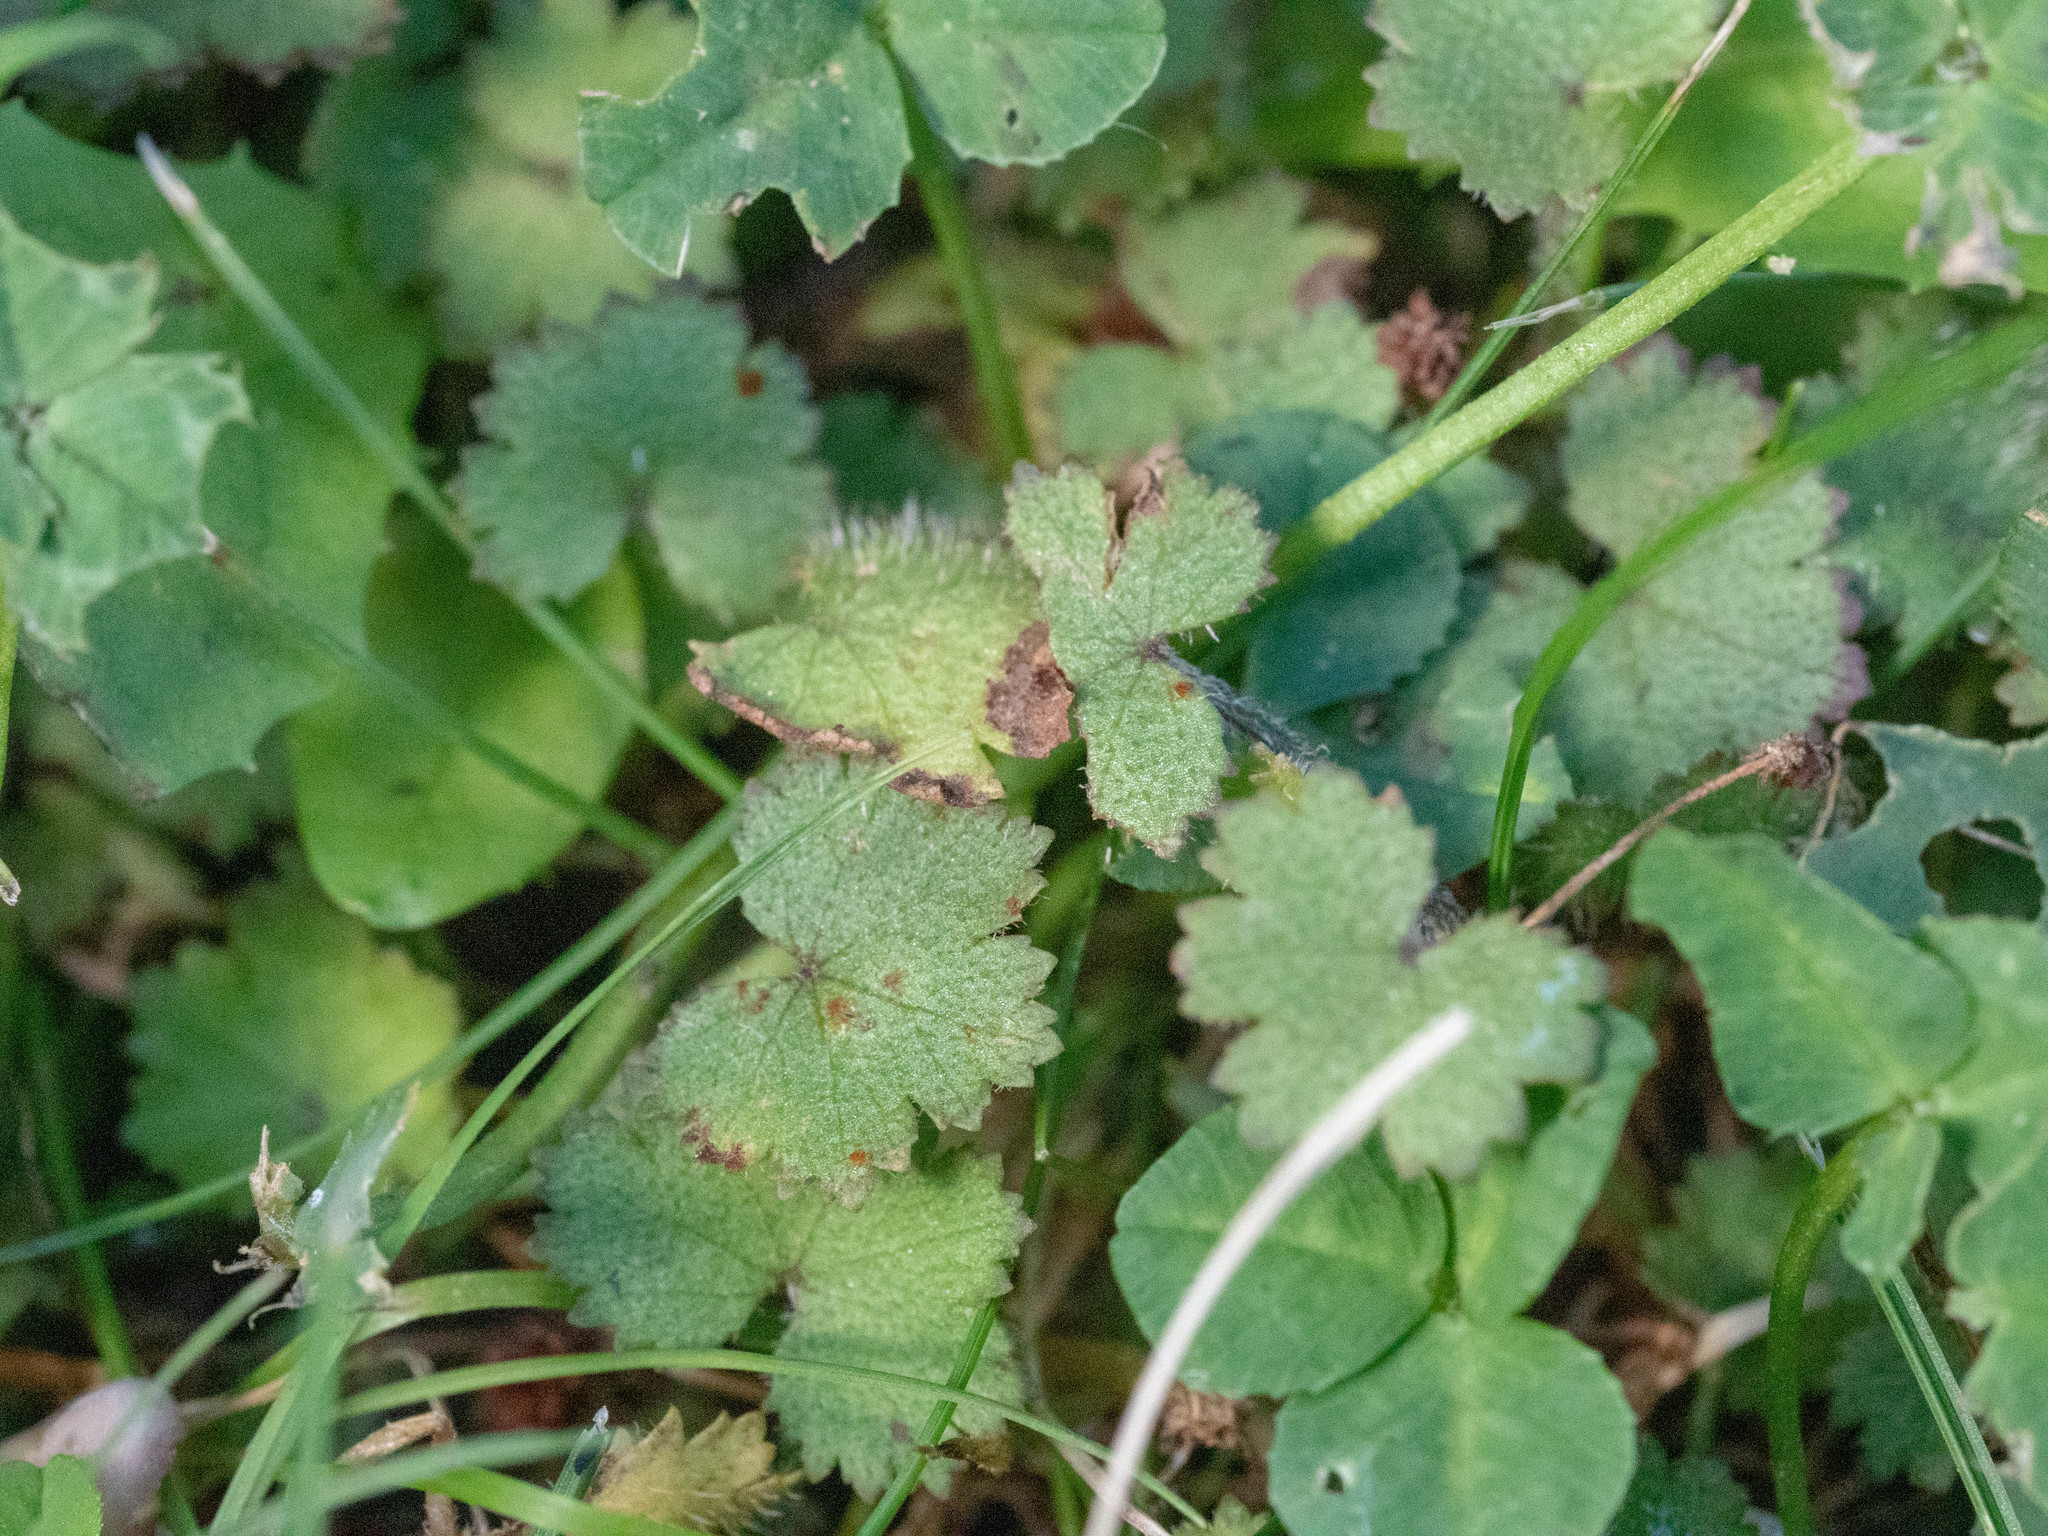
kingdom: Plantae
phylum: Tracheophyta
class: Magnoliopsida
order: Apiales
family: Araliaceae
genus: Hydrocotyle
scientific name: Hydrocotyle moschata
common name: Hairy pennywort
